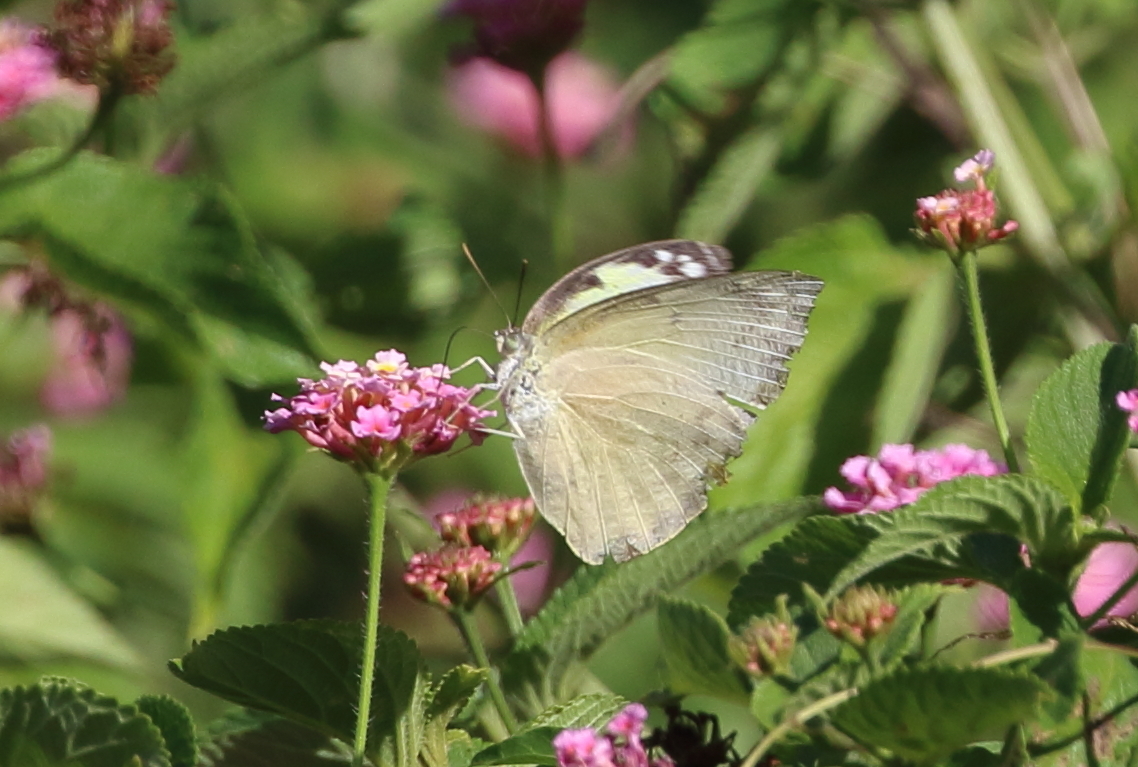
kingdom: Animalia
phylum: Arthropoda
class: Insecta
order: Lepidoptera
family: Pieridae
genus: Catopsilia
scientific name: Catopsilia pomona
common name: Common emigrant
